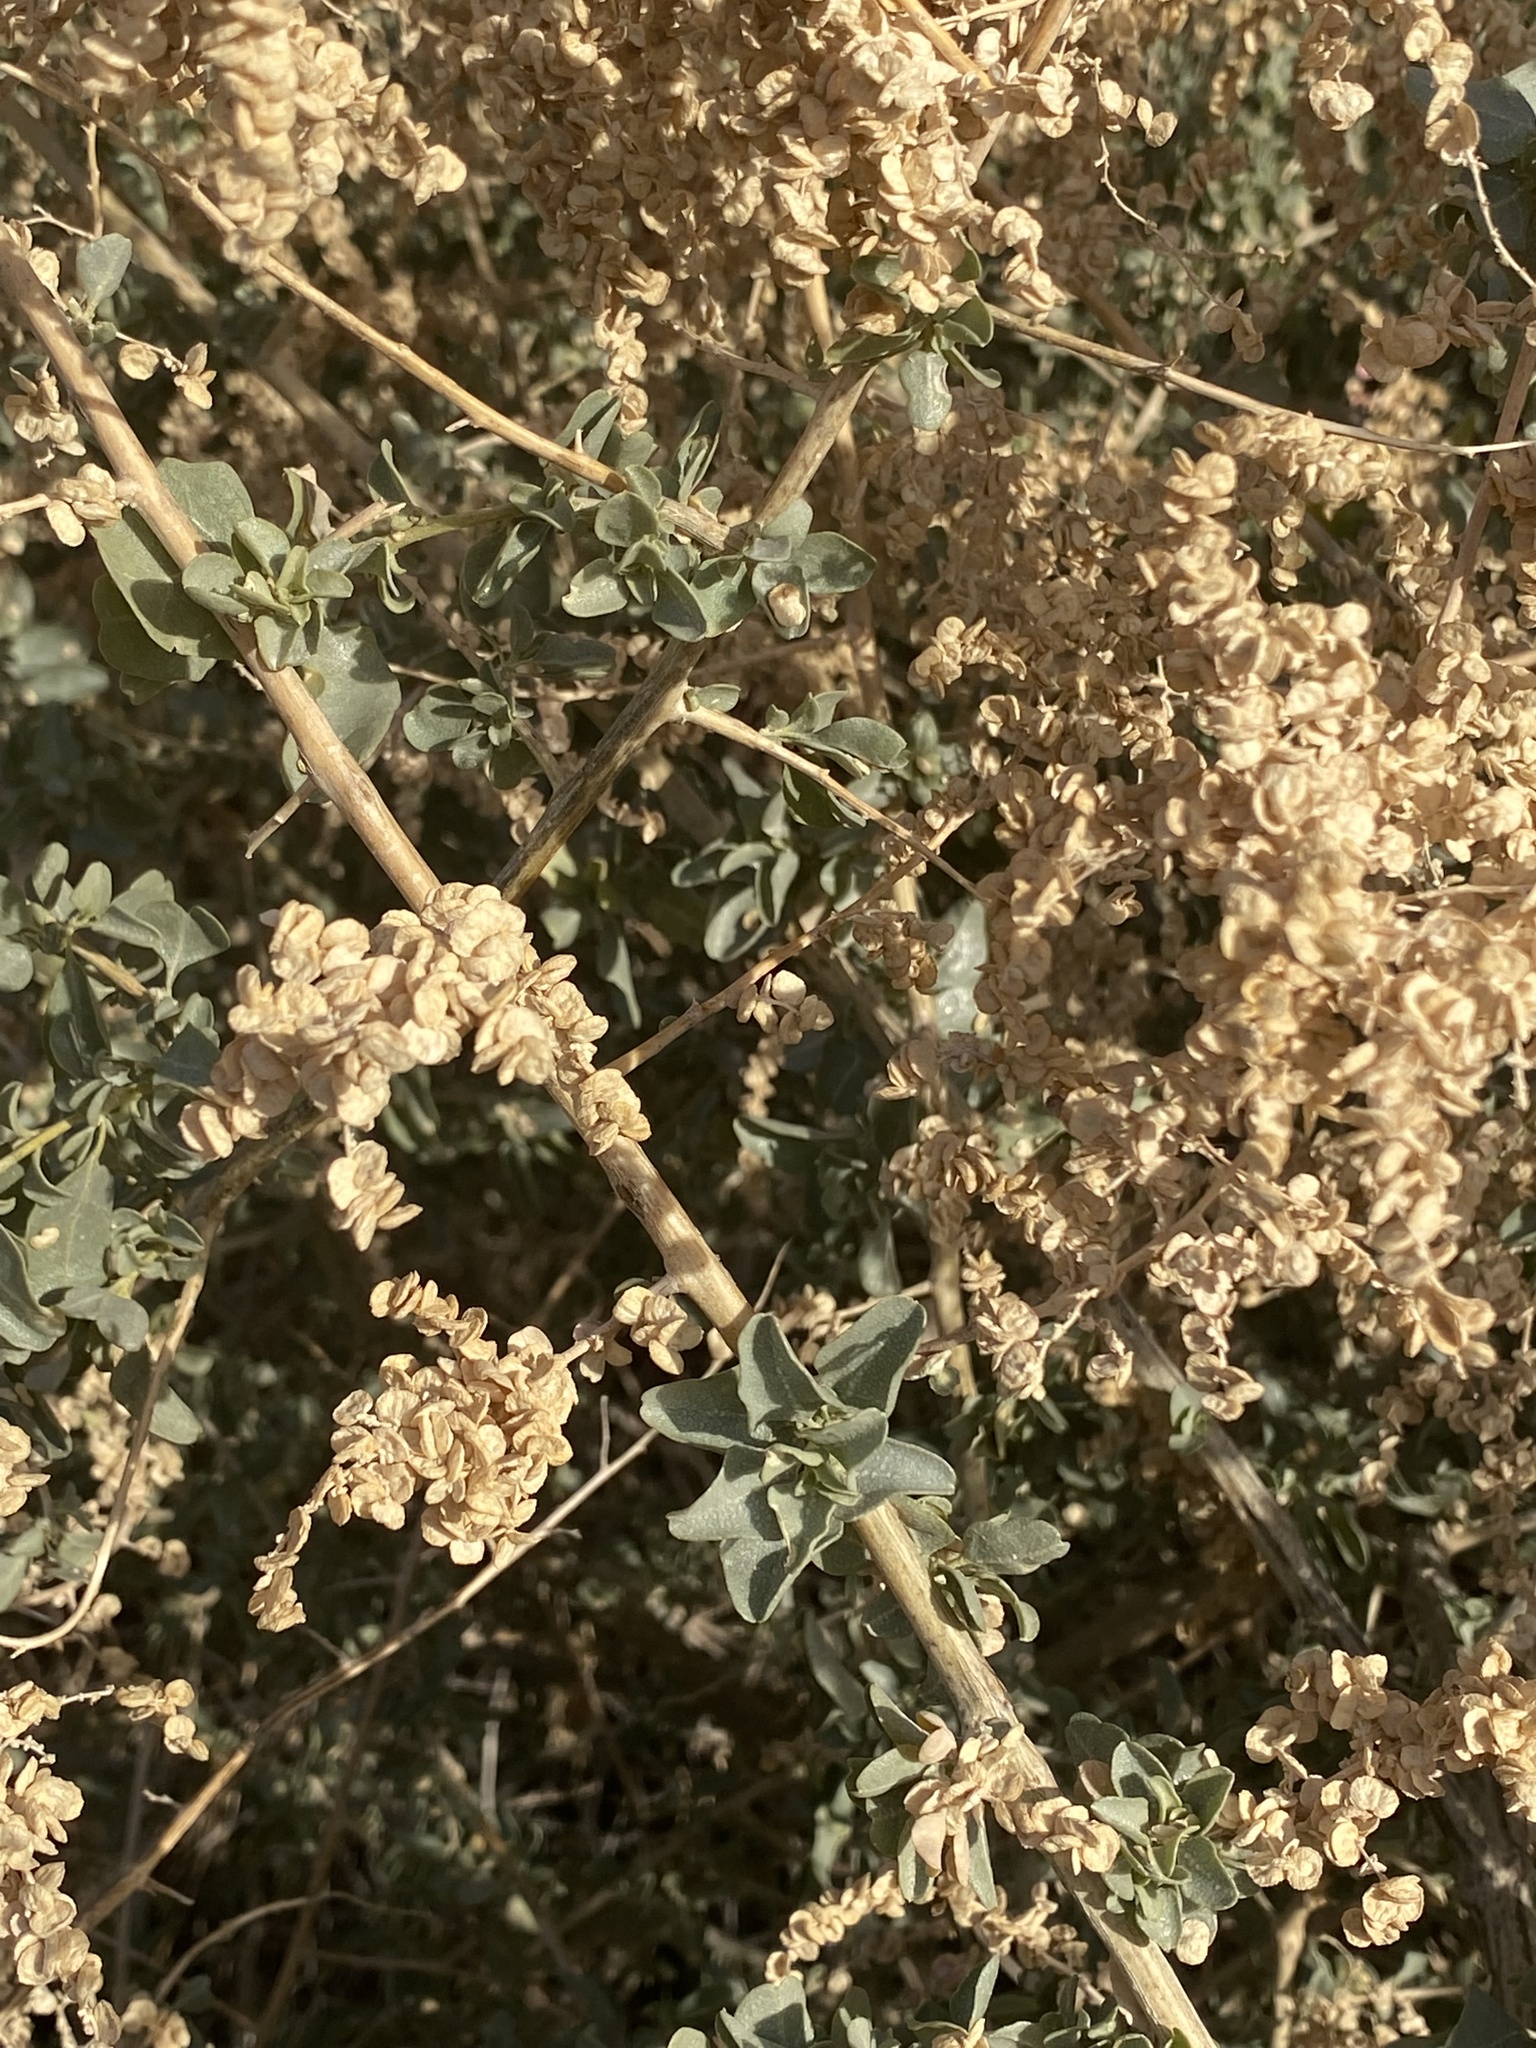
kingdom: Plantae
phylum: Tracheophyta
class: Magnoliopsida
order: Caryophyllales
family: Amaranthaceae
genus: Atriplex
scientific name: Atriplex lentiformis
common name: Big saltbush
